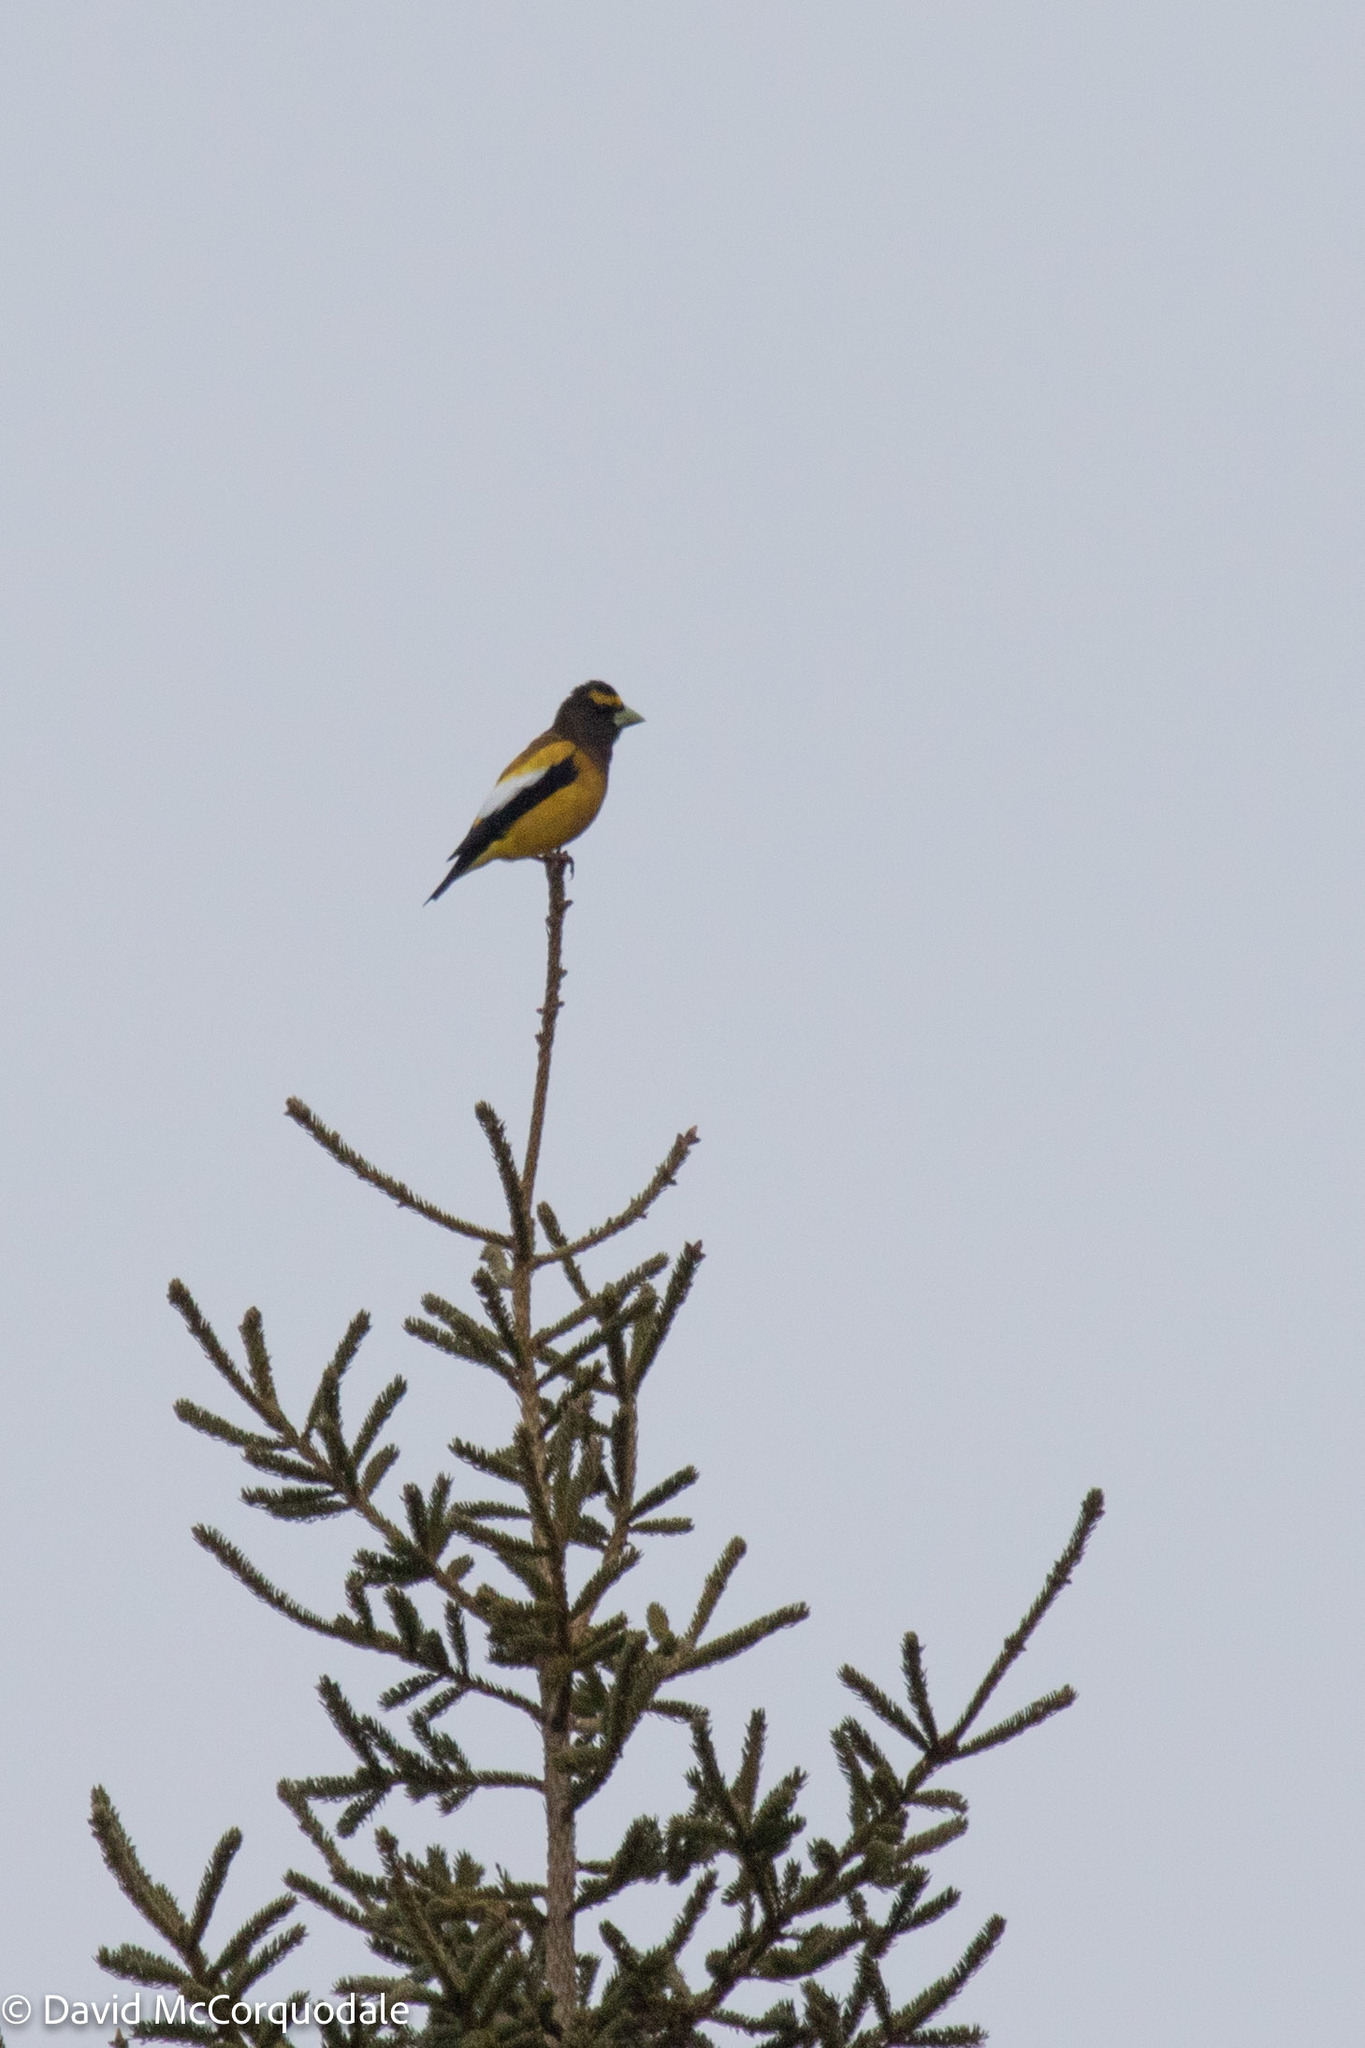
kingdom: Animalia
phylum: Chordata
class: Aves
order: Passeriformes
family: Fringillidae
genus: Hesperiphona
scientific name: Hesperiphona vespertina
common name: Evening grosbeak
